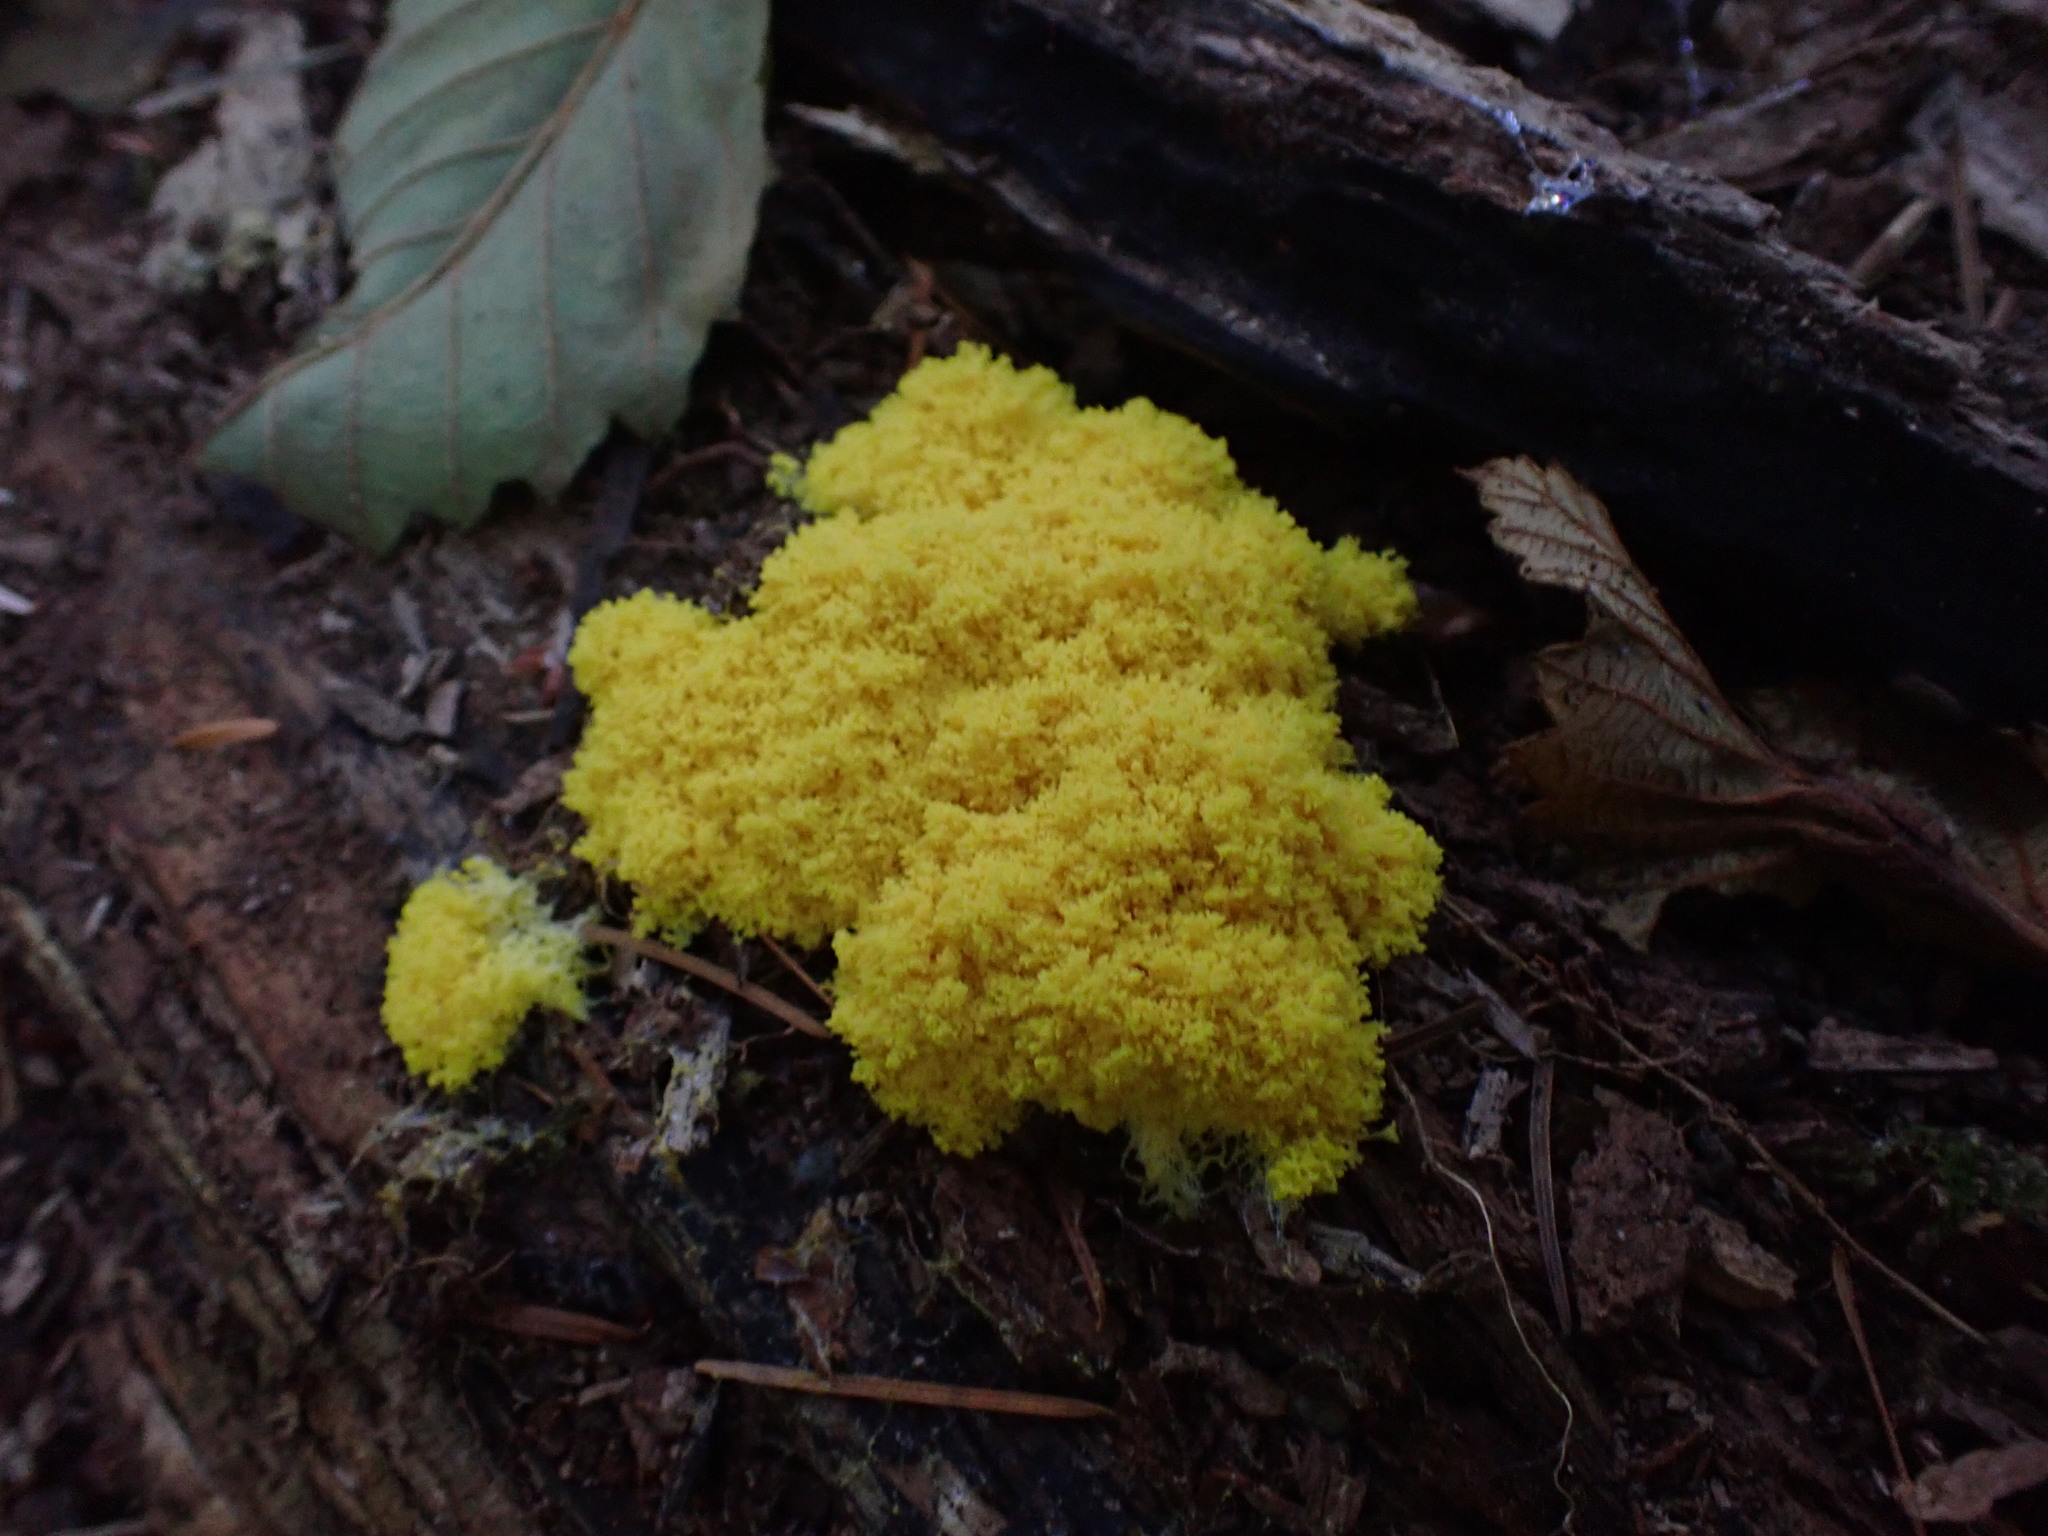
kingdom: Protozoa
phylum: Mycetozoa
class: Myxomycetes
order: Physarales
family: Physaraceae
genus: Fuligo
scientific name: Fuligo septica
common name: Dog vomit slime mold
